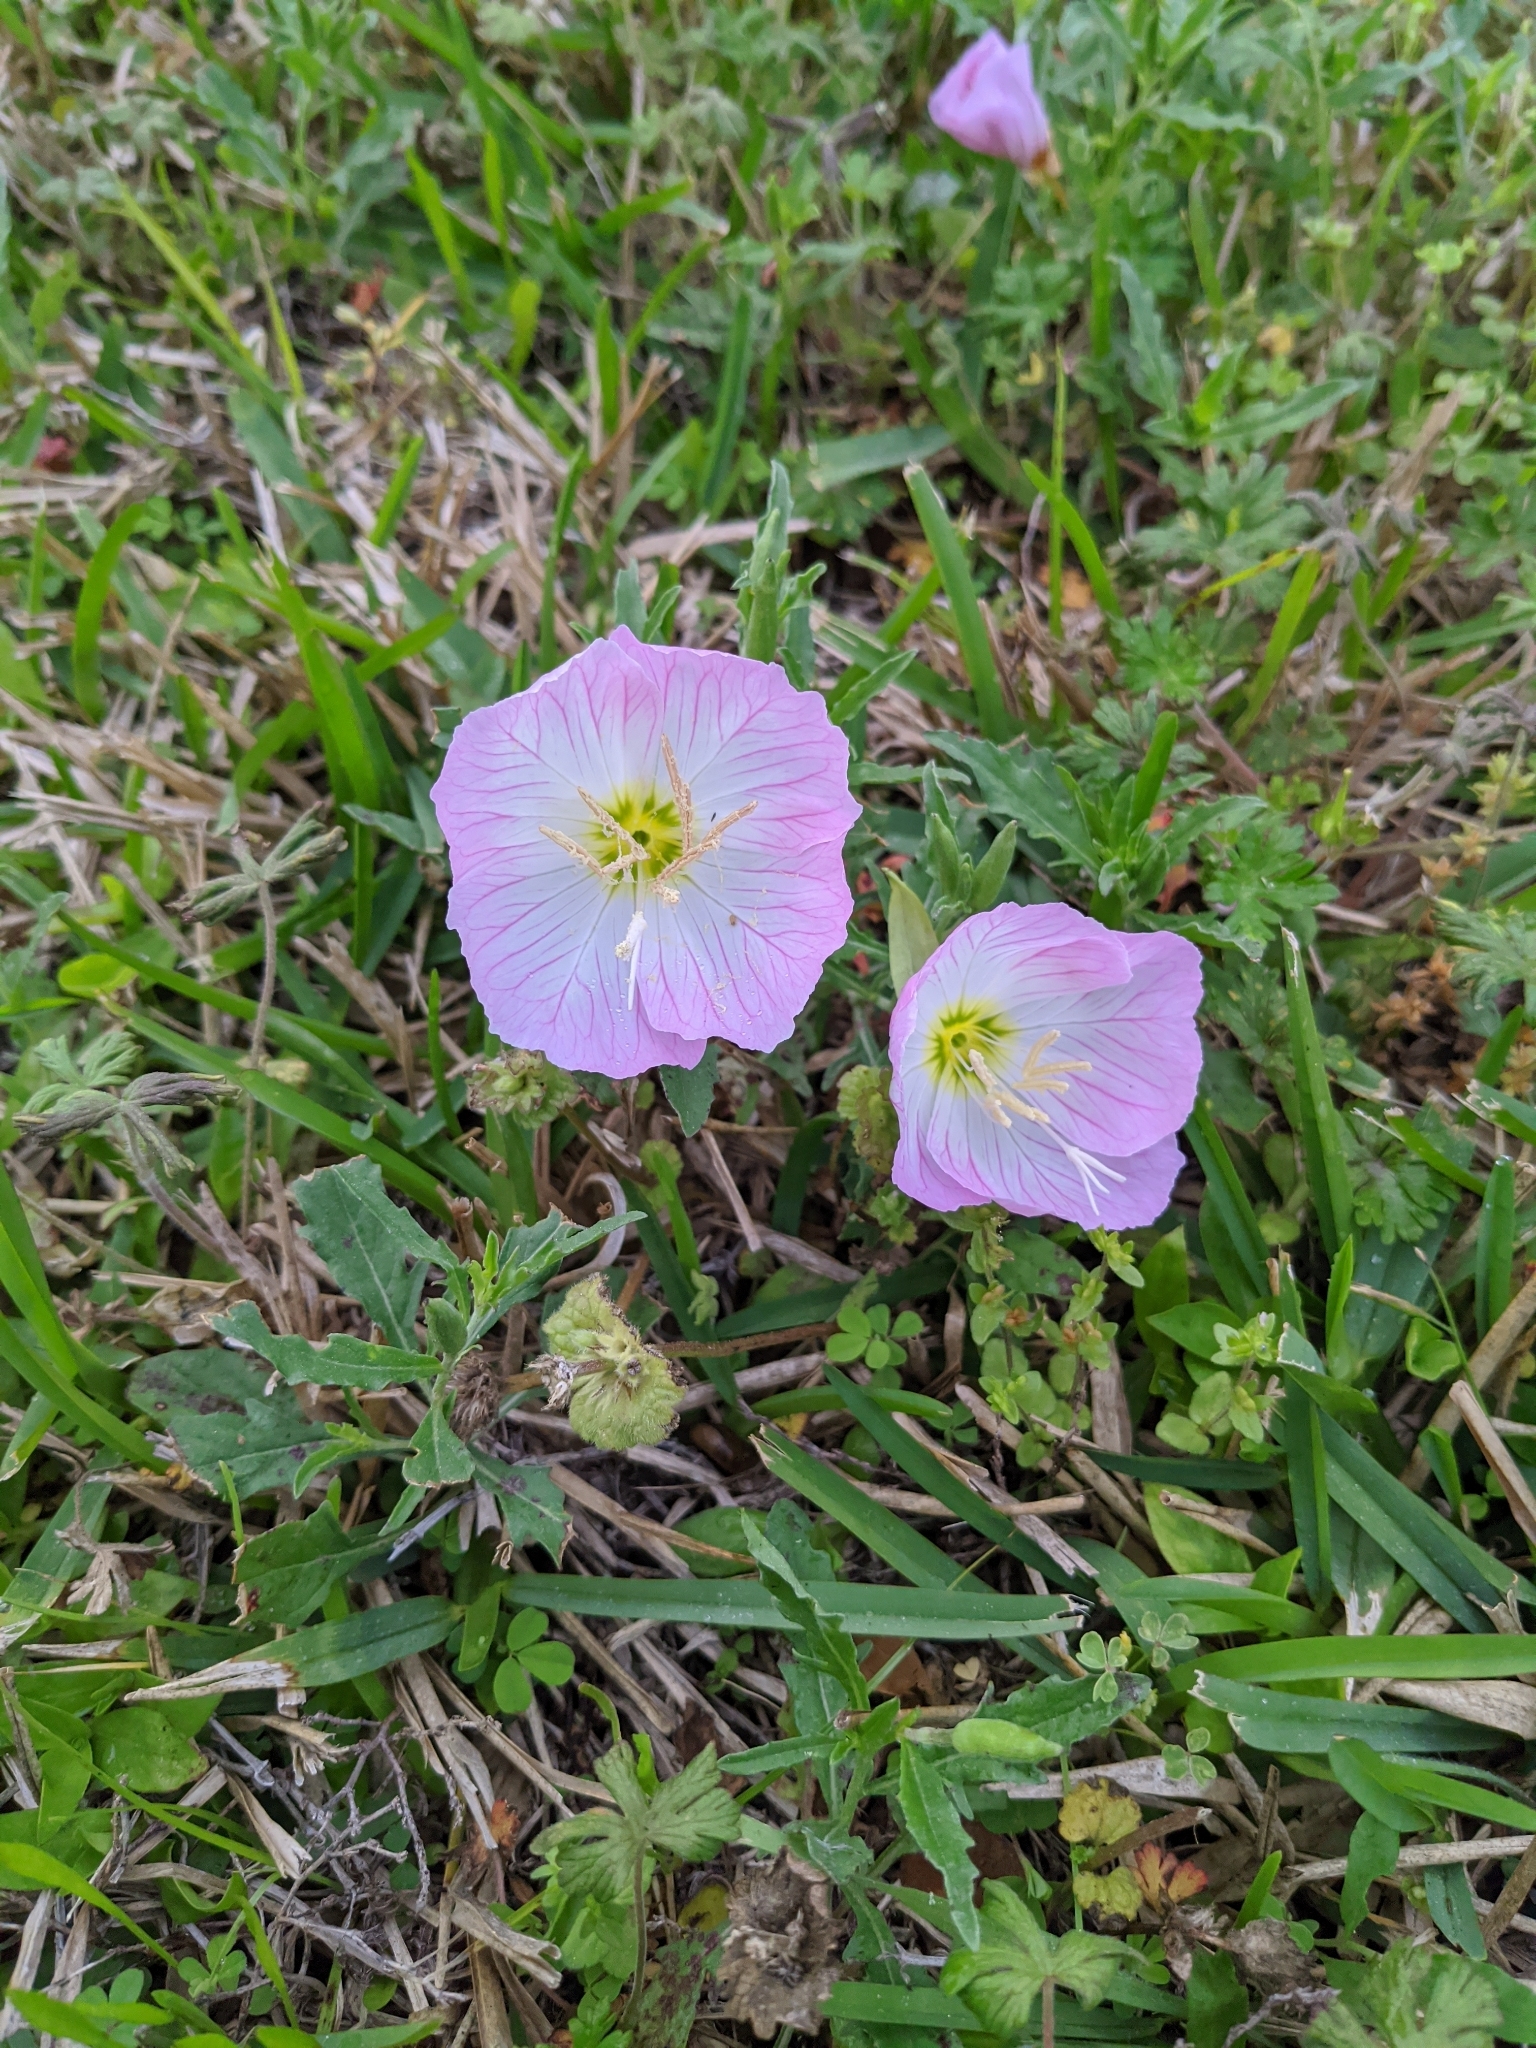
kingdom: Plantae
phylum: Tracheophyta
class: Magnoliopsida
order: Myrtales
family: Onagraceae
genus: Oenothera
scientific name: Oenothera speciosa
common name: White evening-primrose
